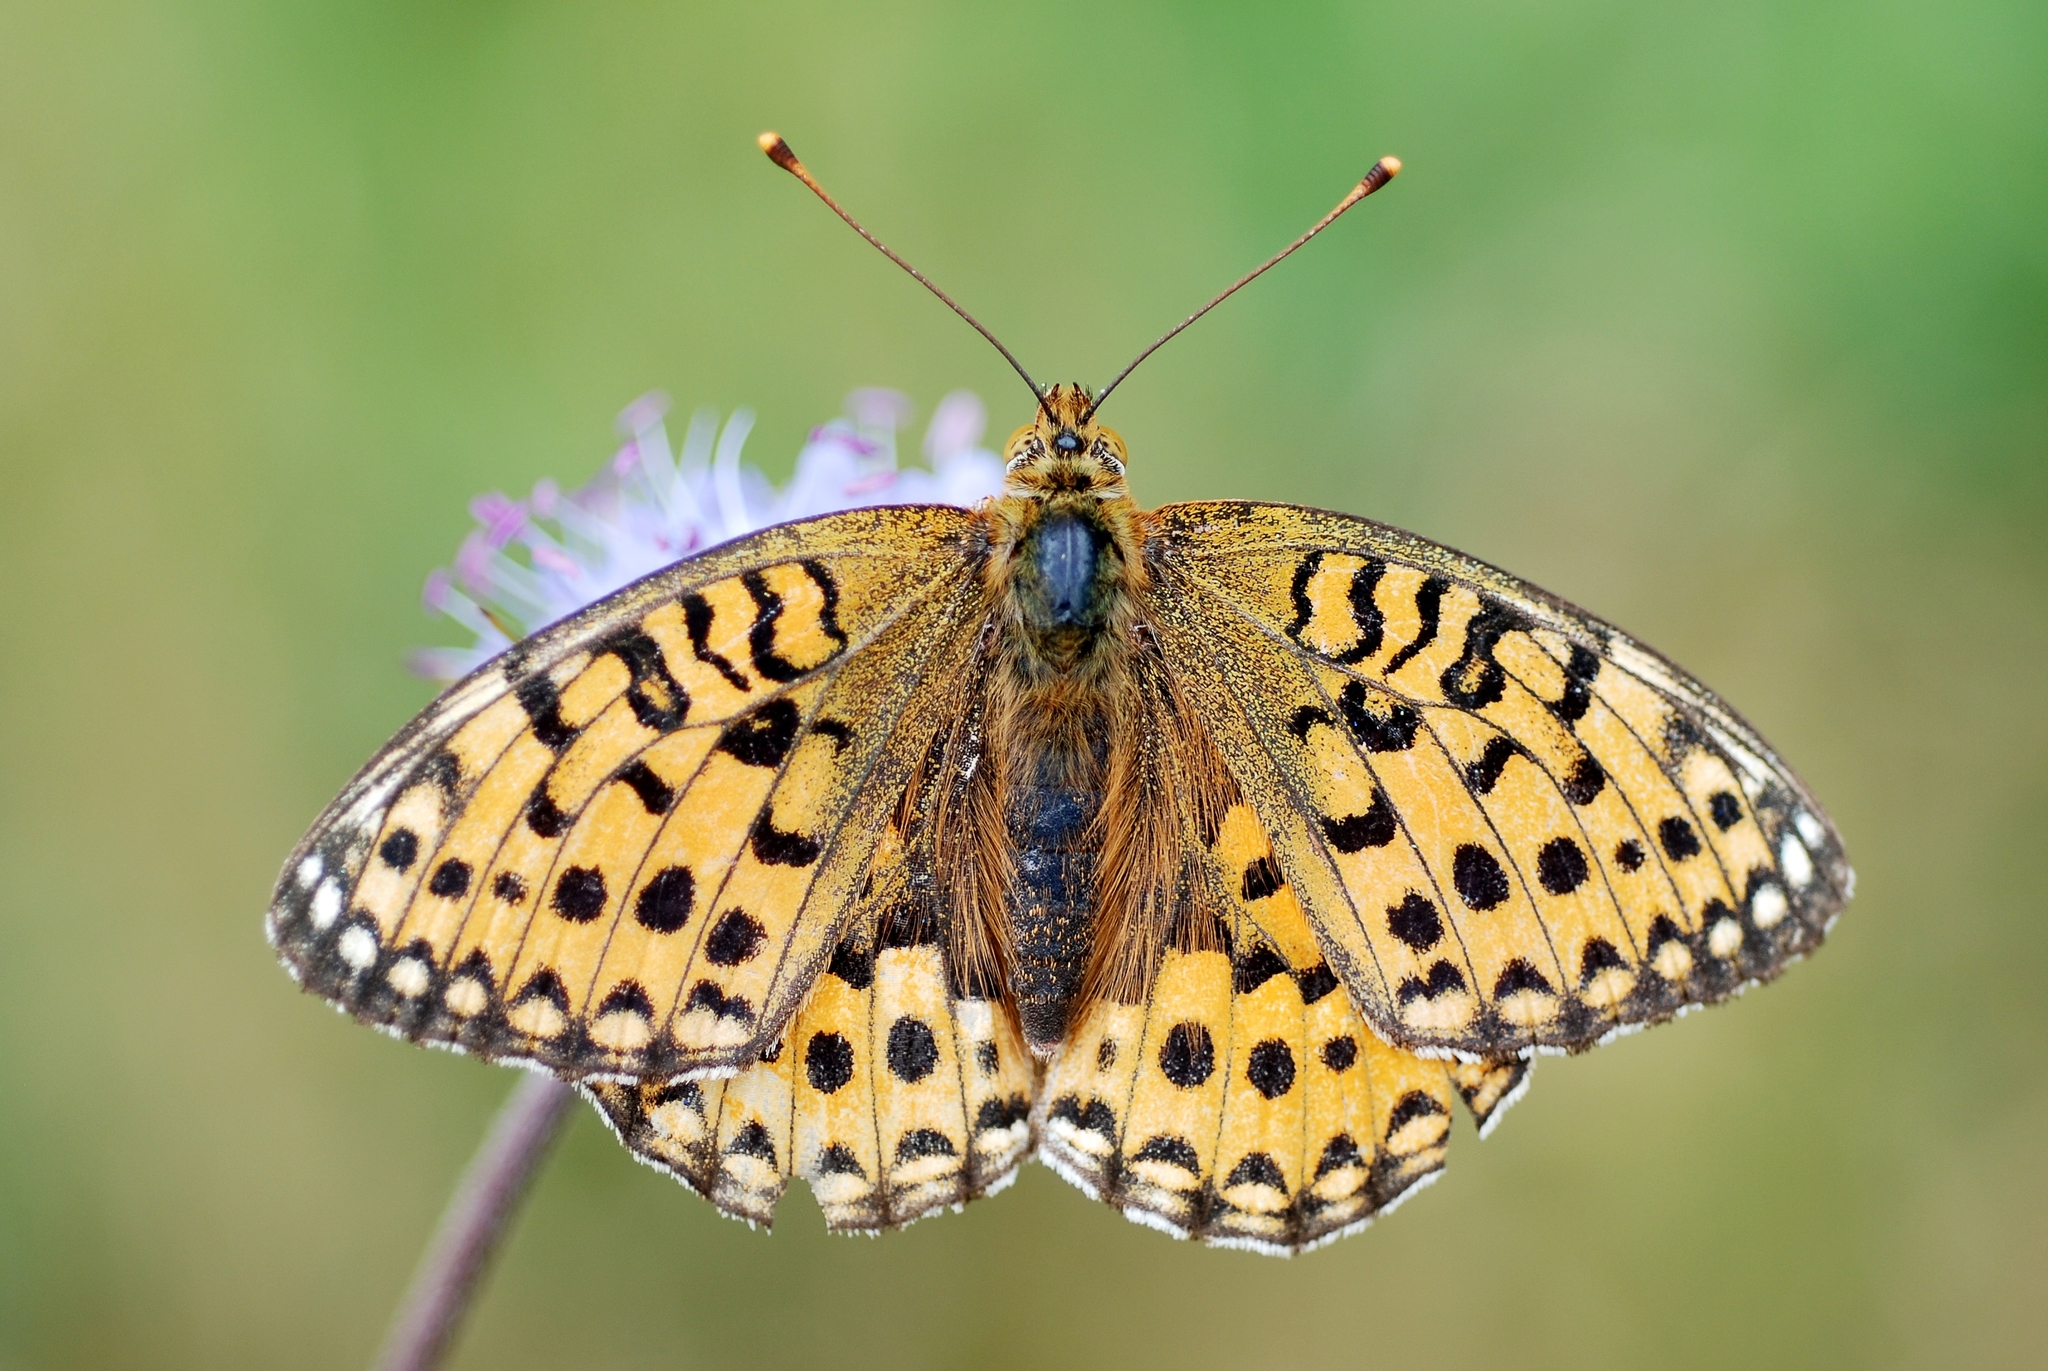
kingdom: Animalia
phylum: Arthropoda
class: Insecta
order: Lepidoptera
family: Nymphalidae
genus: Speyeria
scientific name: Speyeria aglaja
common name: Dark green fritillary
